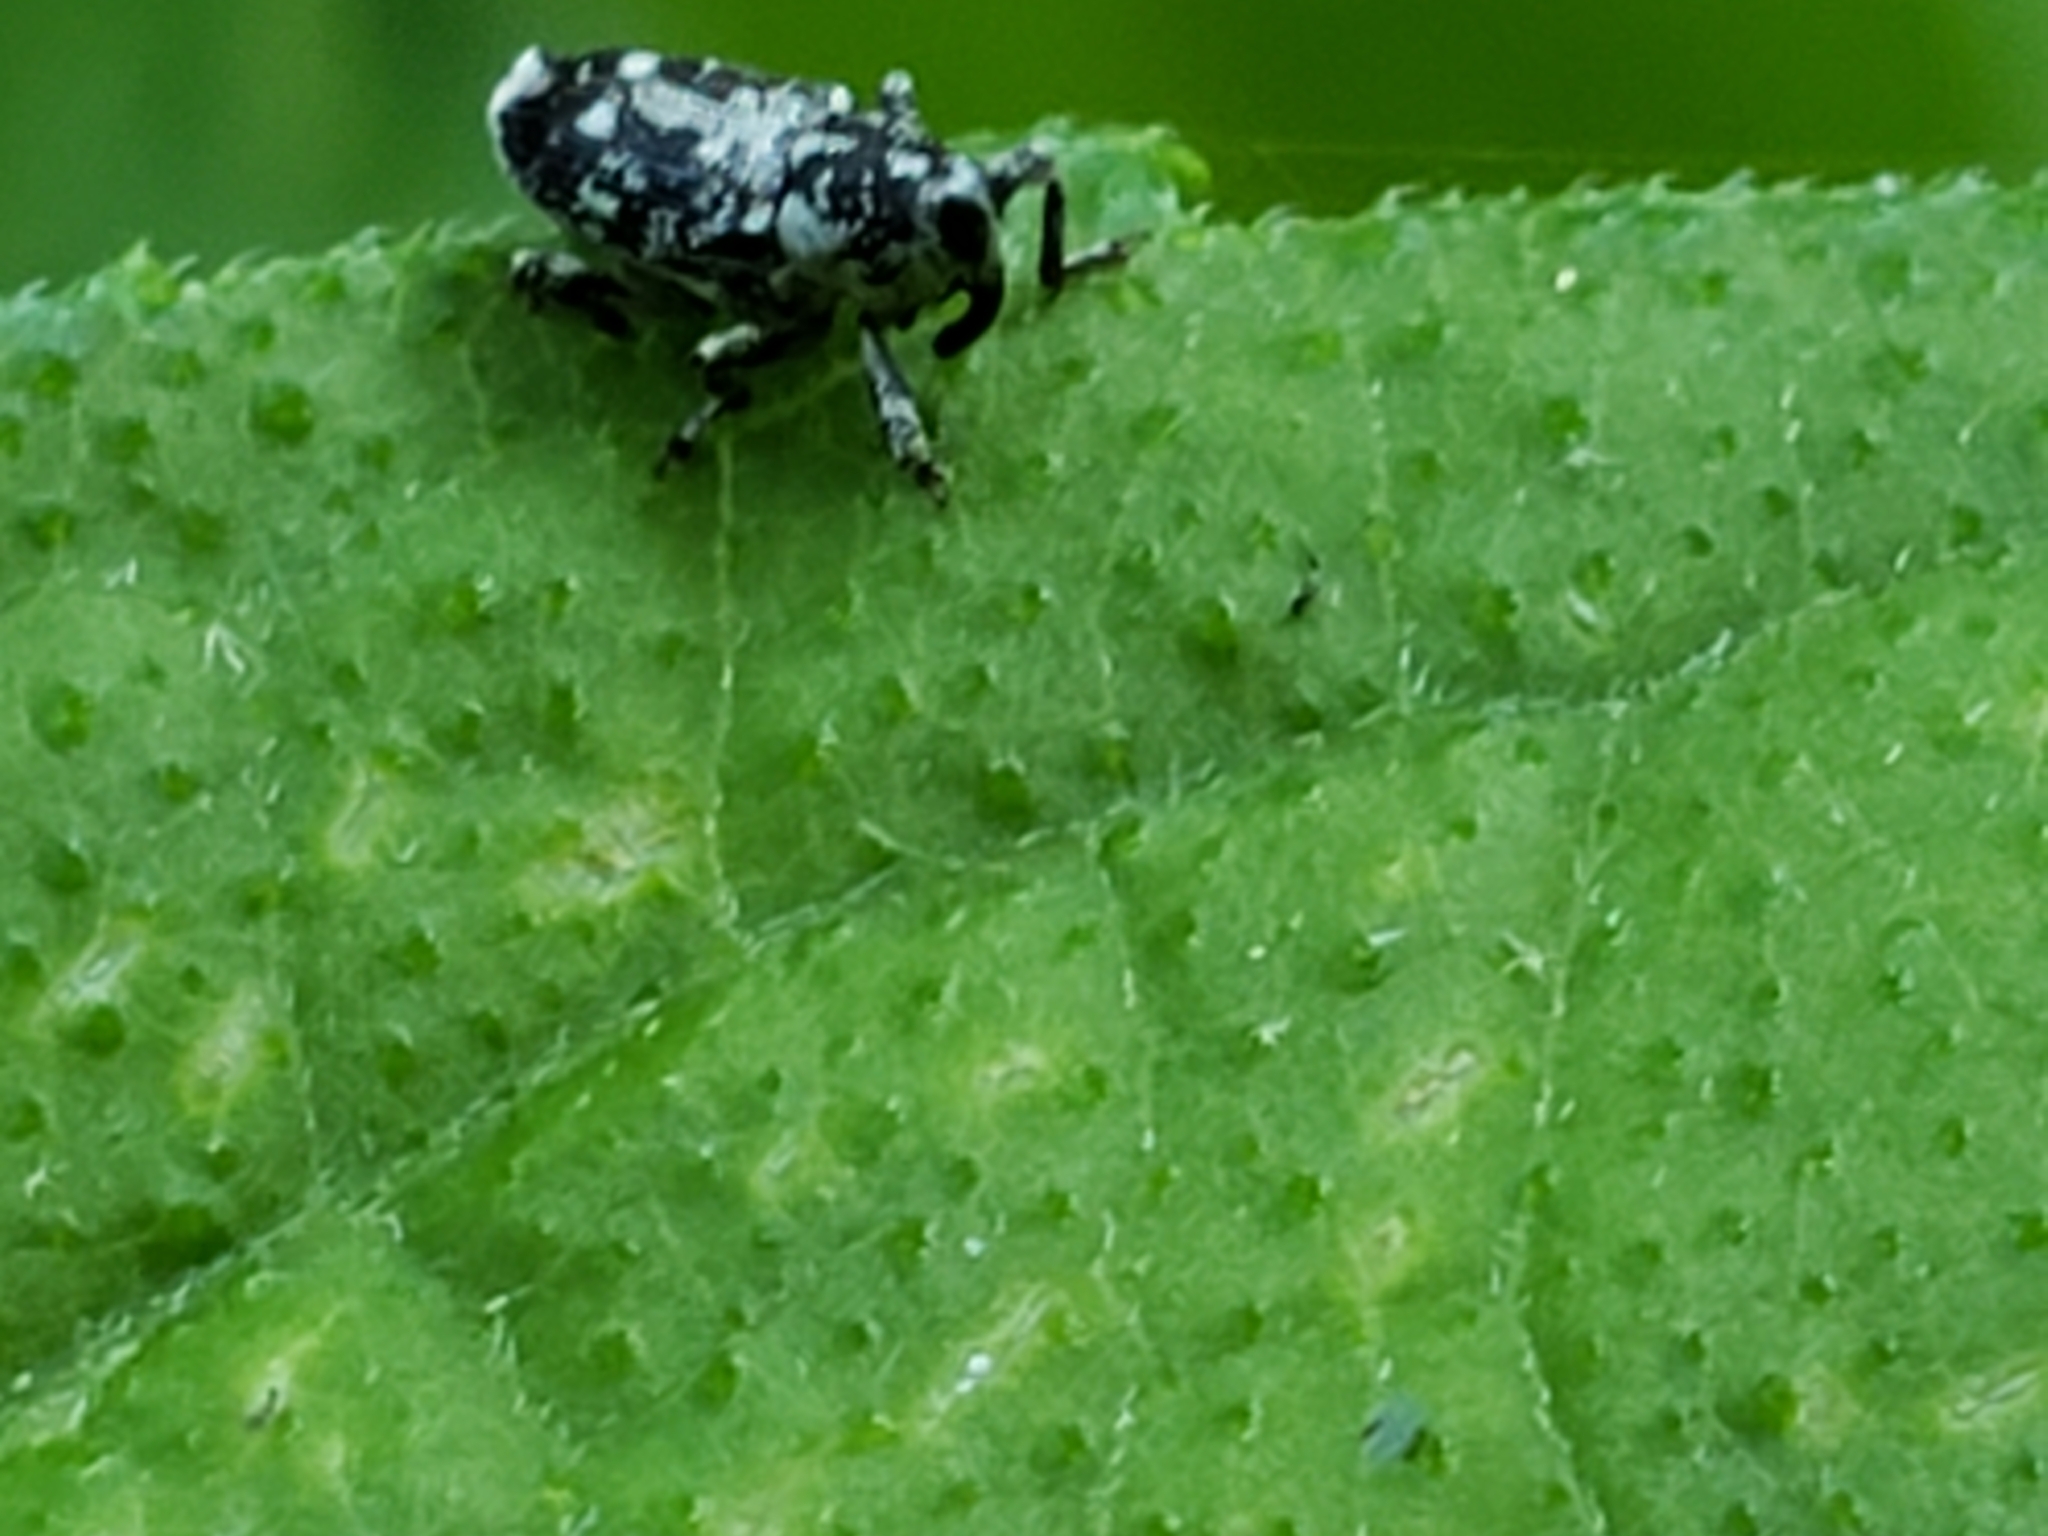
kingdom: Animalia
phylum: Arthropoda
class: Insecta
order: Coleoptera
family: Curculionidae
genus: Cylindrocopturus
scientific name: Cylindrocopturus quercus
